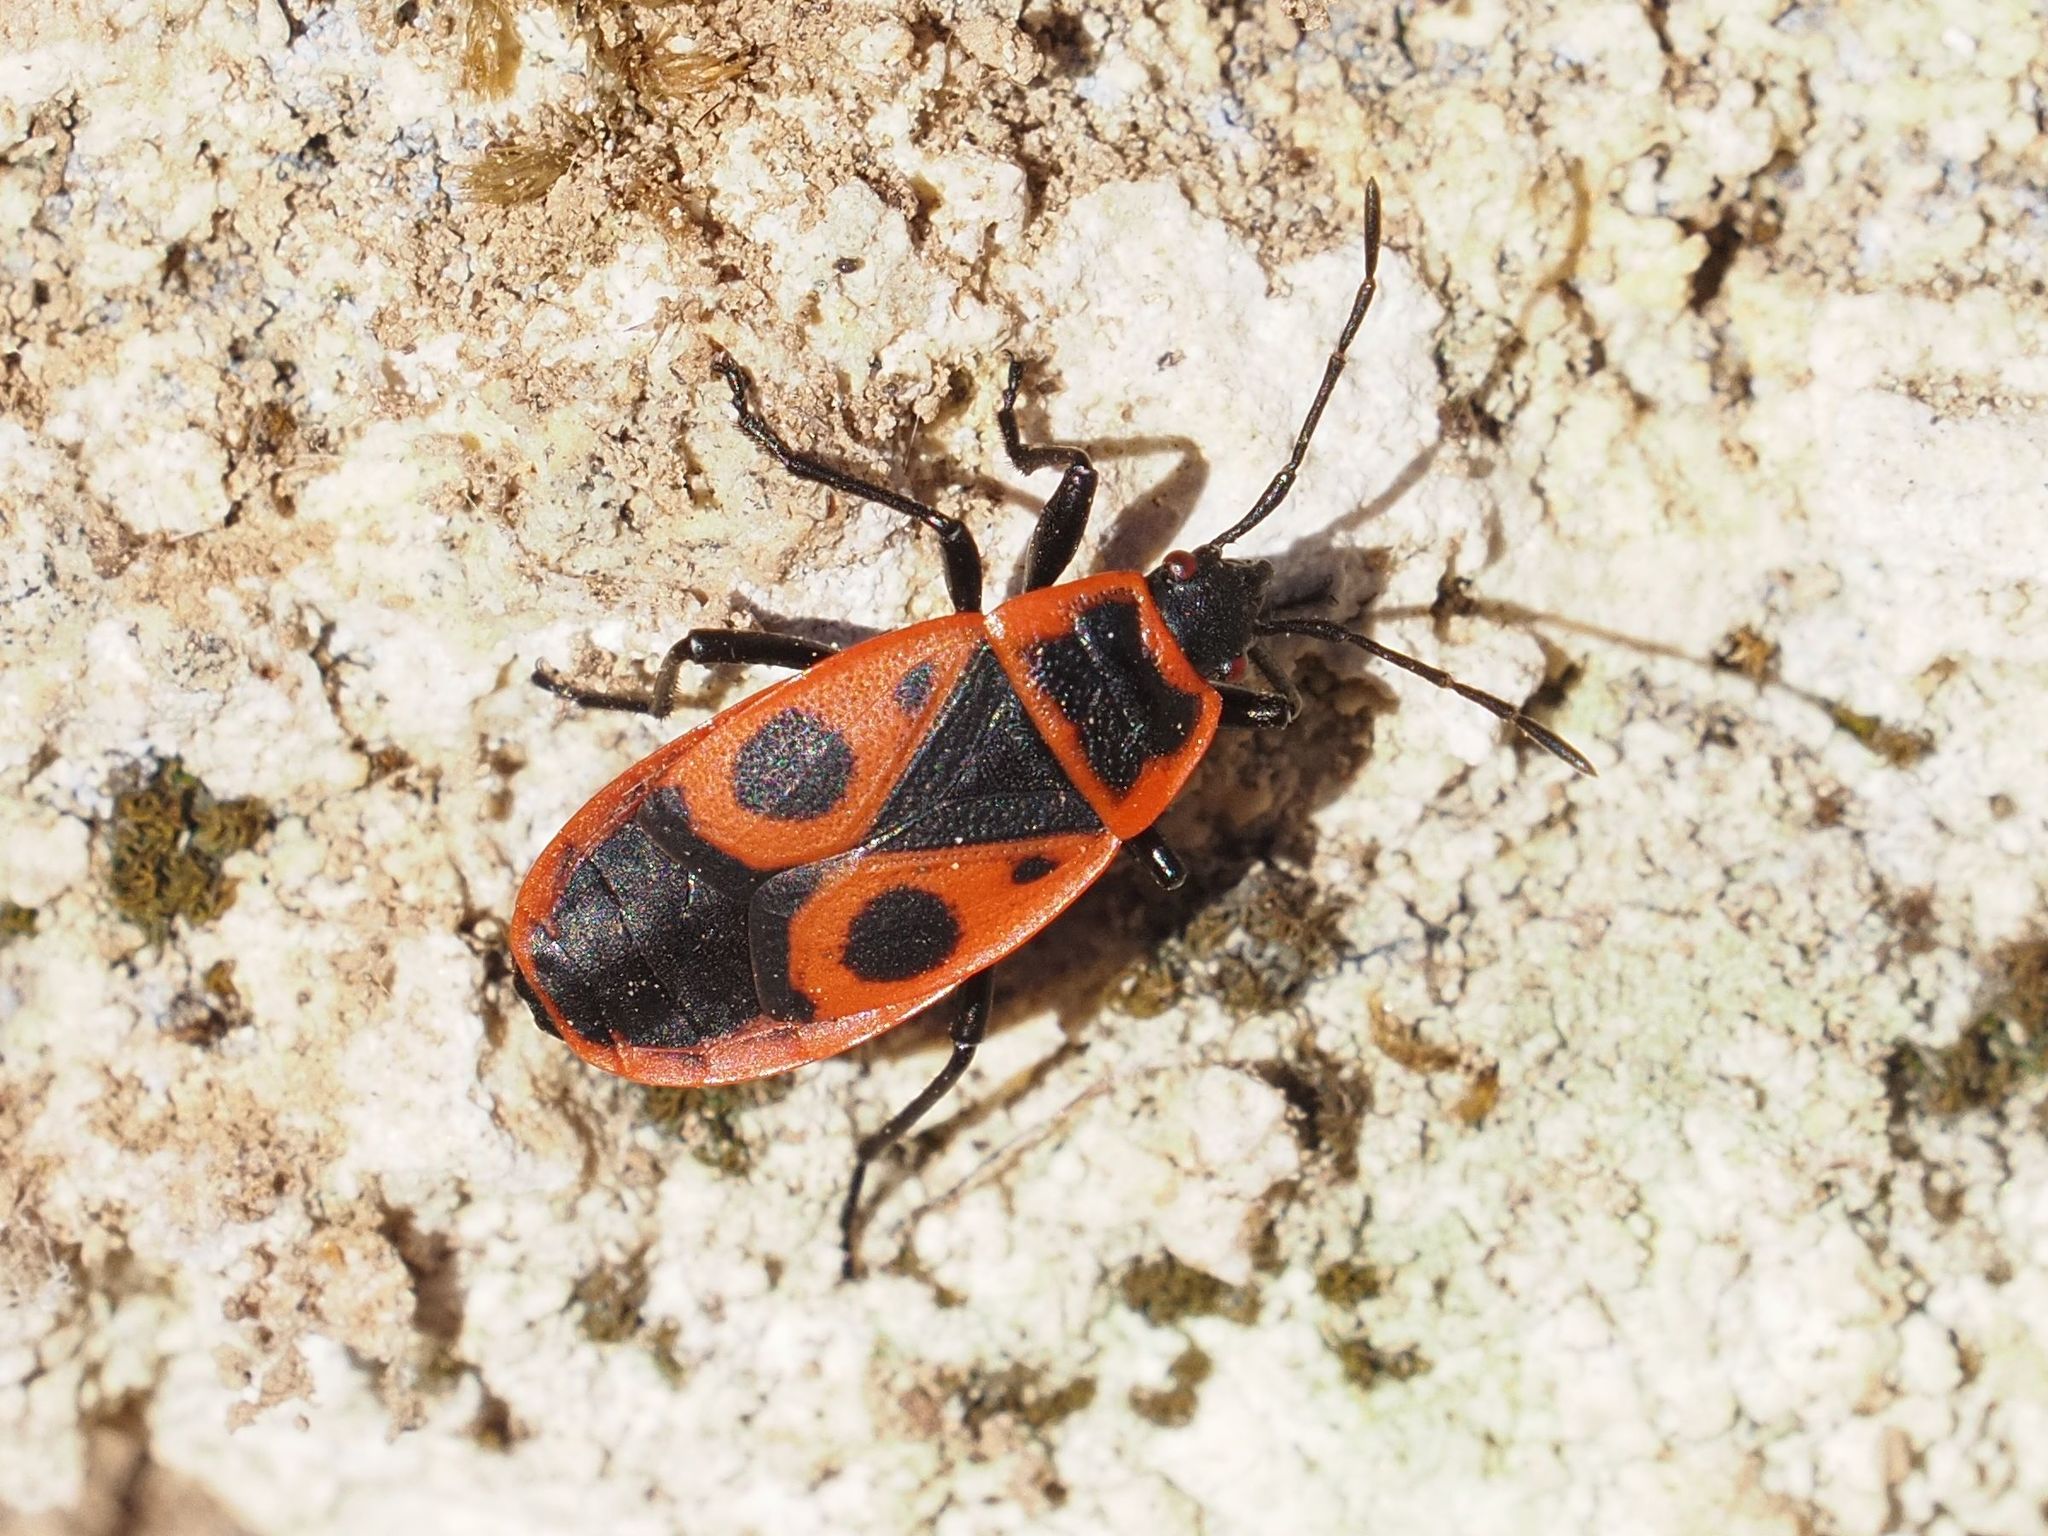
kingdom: Animalia
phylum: Arthropoda
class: Insecta
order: Hemiptera
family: Pyrrhocoridae
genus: Pyrrhocoris
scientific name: Pyrrhocoris apterus
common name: Firebug
